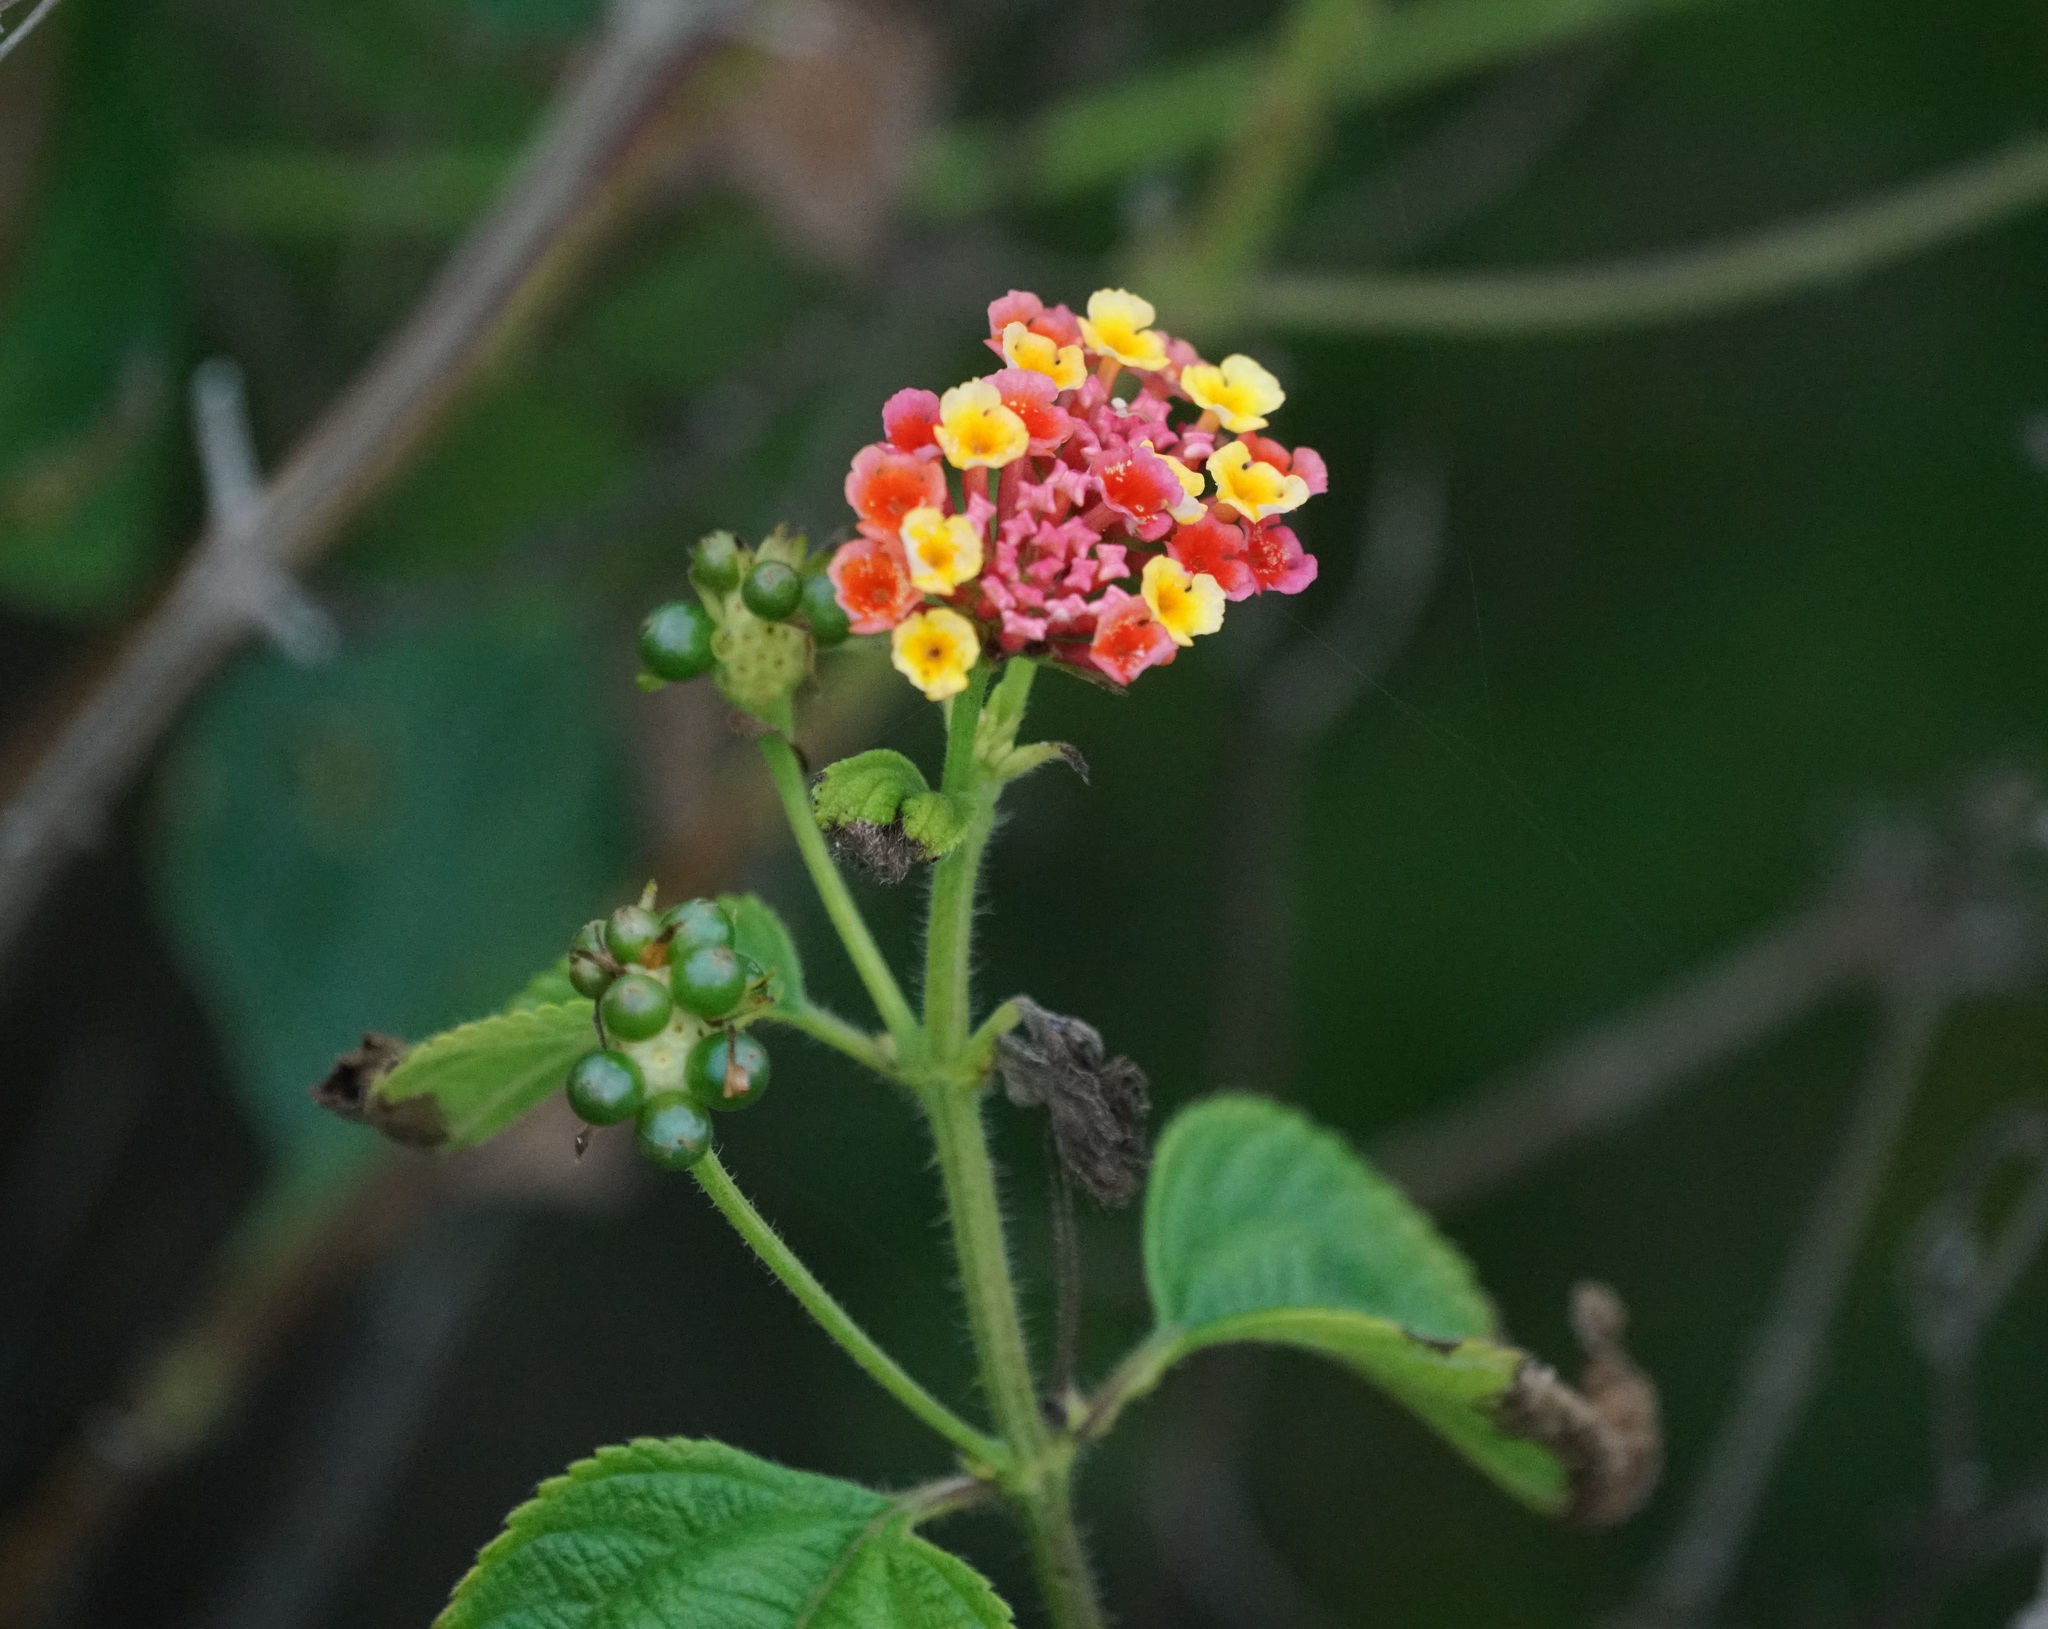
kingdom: Plantae
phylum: Tracheophyta
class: Magnoliopsida
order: Lamiales
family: Verbenaceae
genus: Lantana
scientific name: Lantana camara
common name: Lantana
